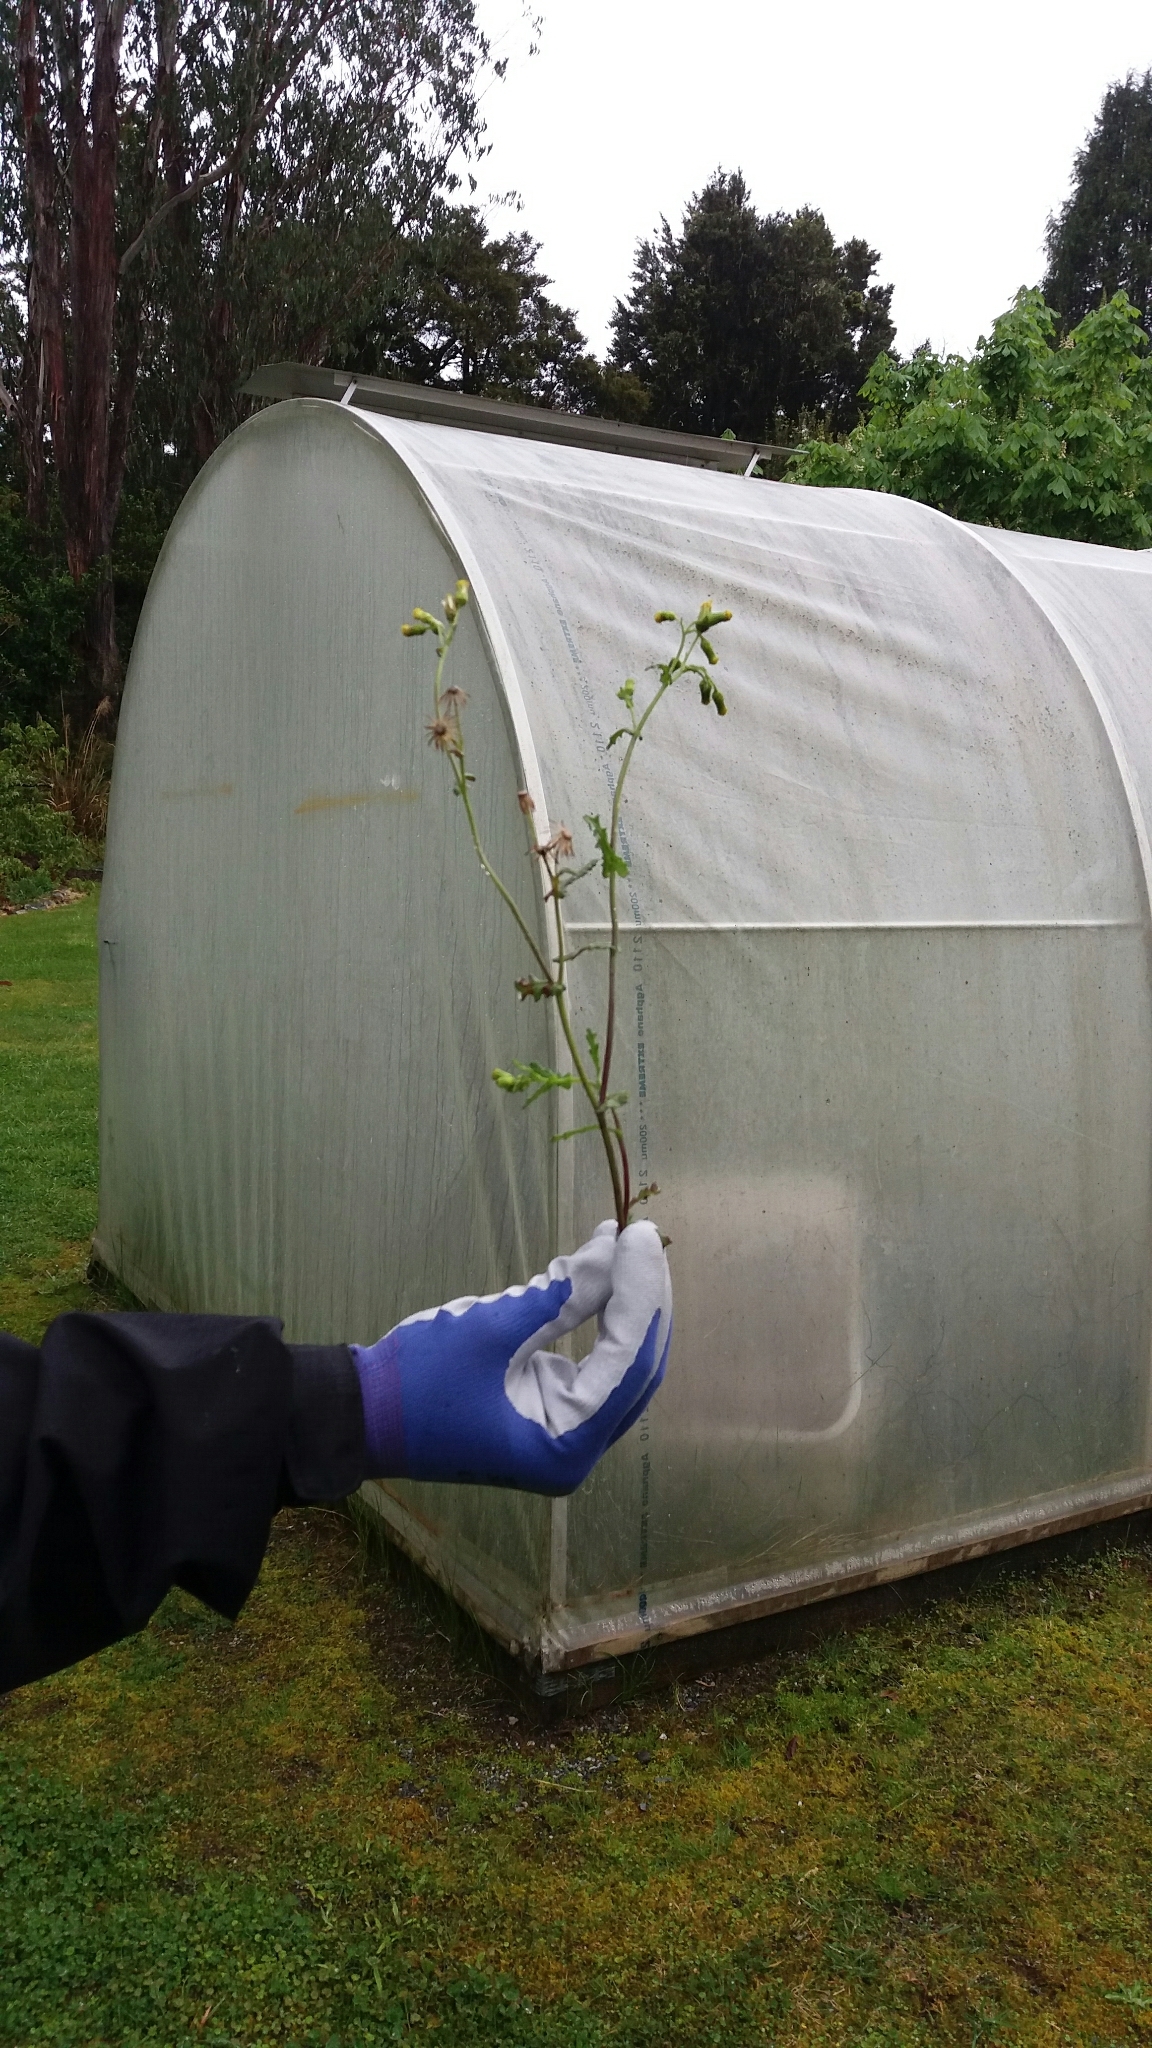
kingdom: Plantae
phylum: Tracheophyta
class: Magnoliopsida
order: Asterales
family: Asteraceae
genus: Senecio
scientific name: Senecio vulgaris
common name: Old-man-in-the-spring
